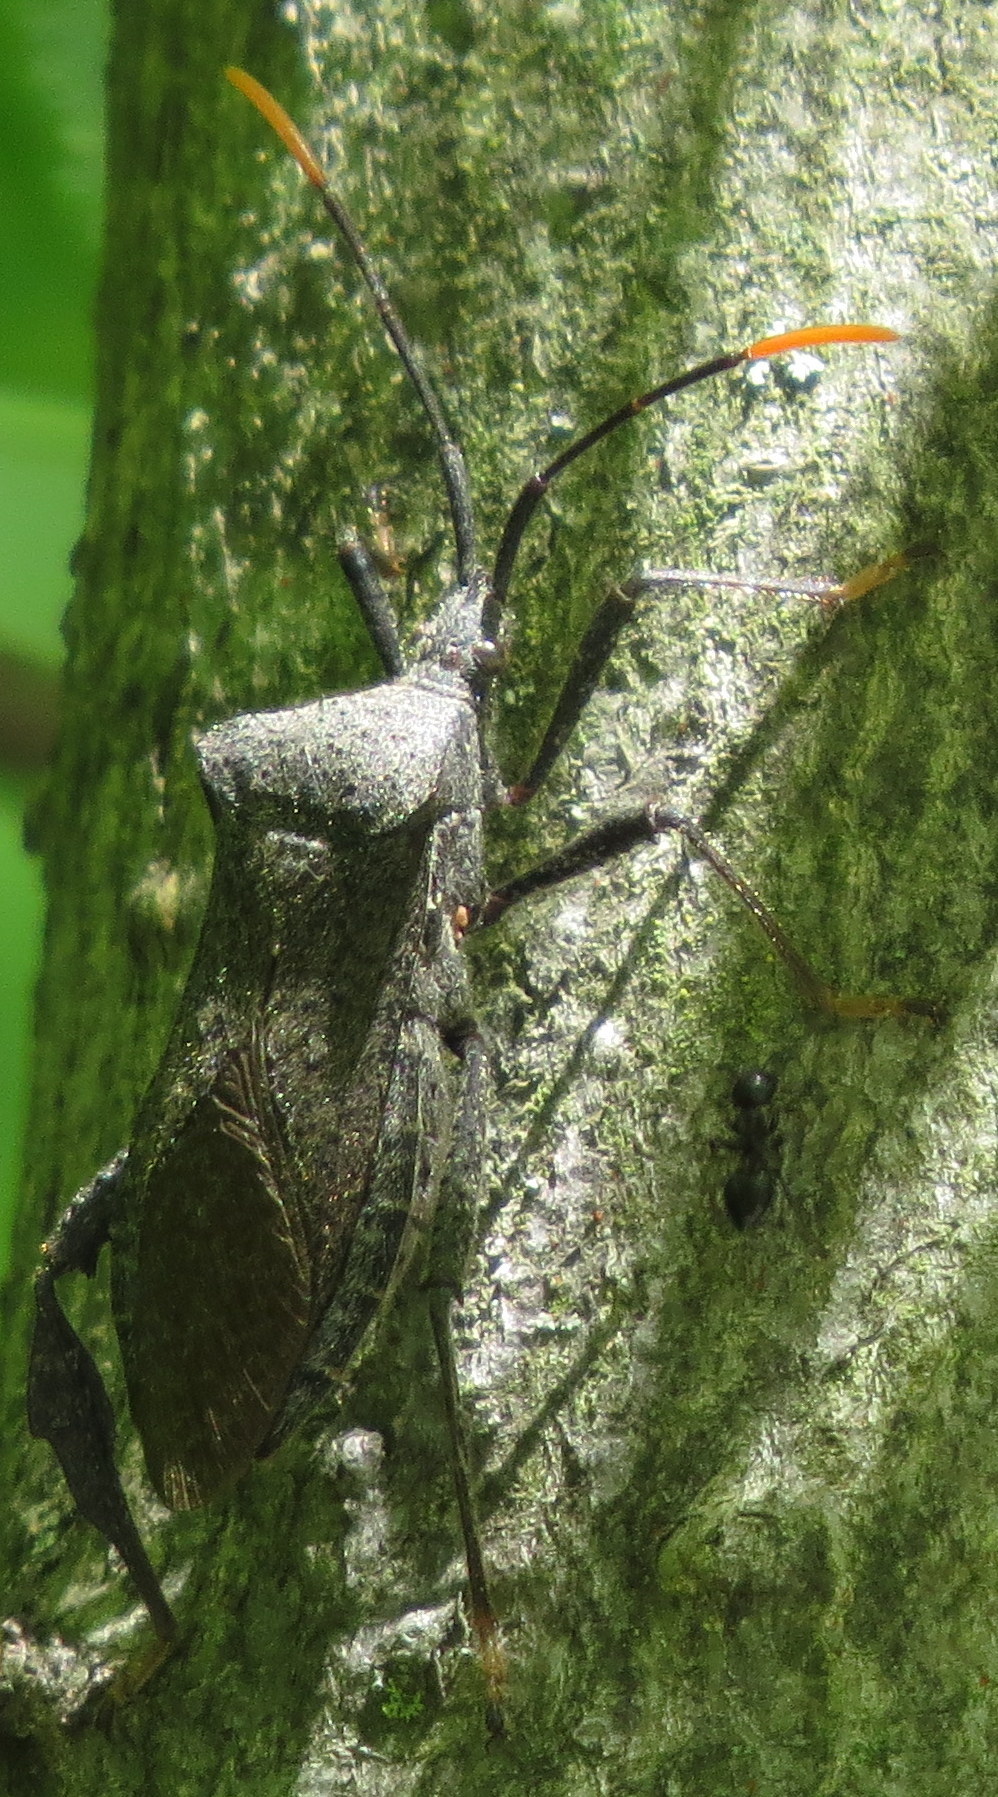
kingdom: Animalia
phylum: Arthropoda
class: Insecta
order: Hemiptera
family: Coreidae
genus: Acanthocephala
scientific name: Acanthocephala terminalis
